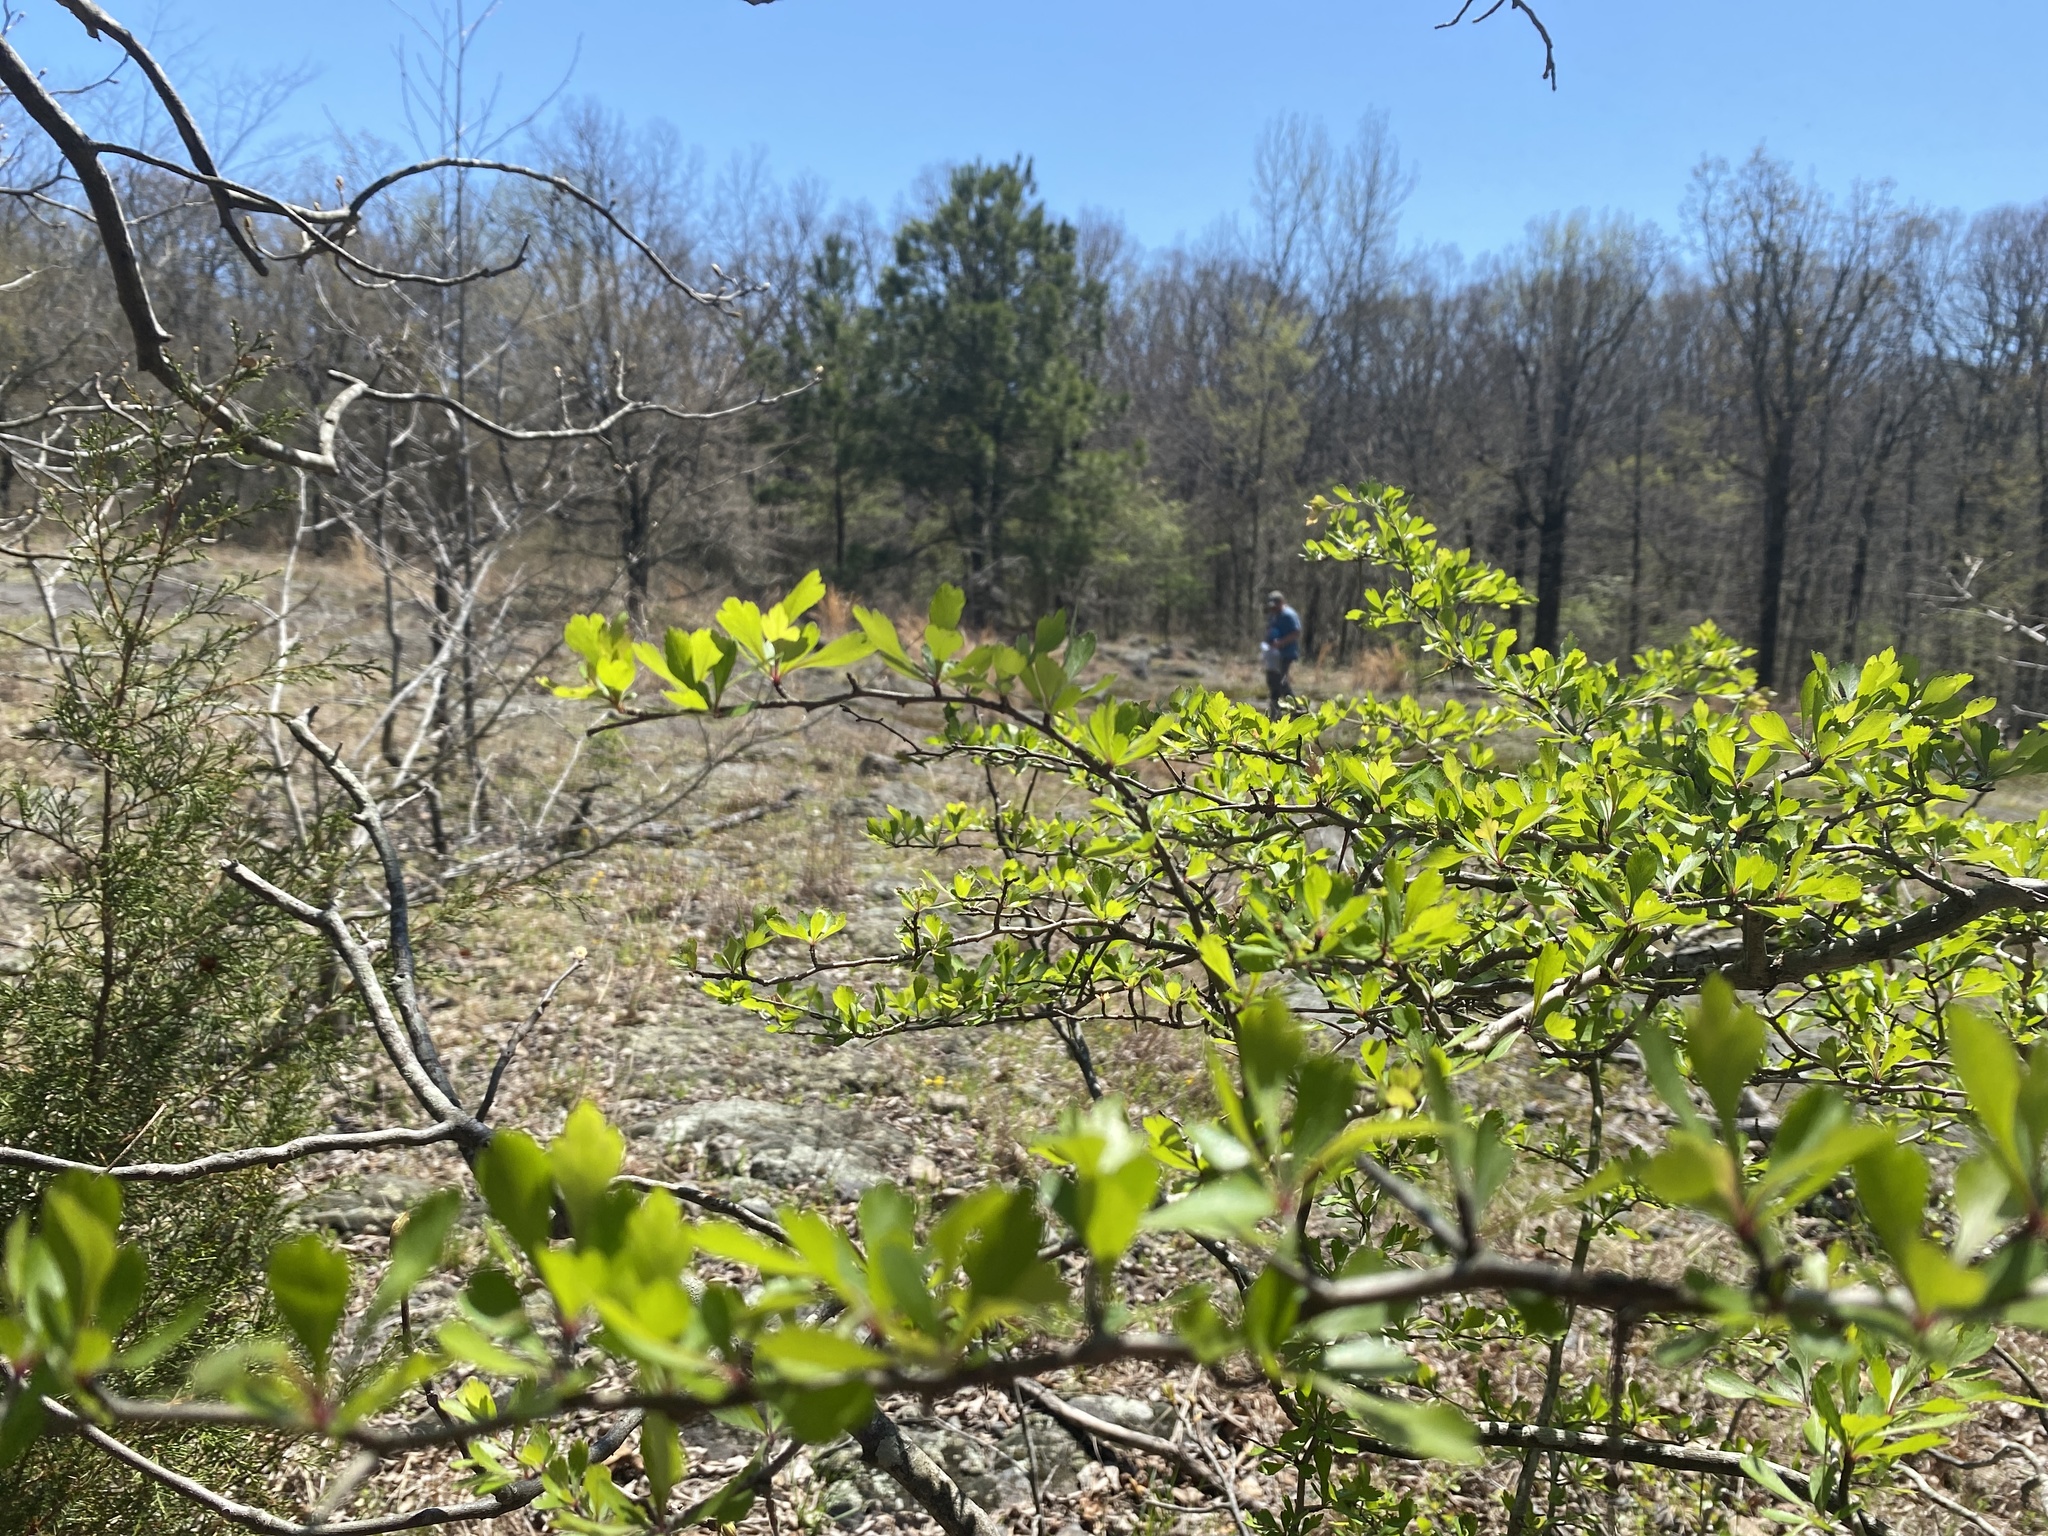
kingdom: Plantae
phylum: Tracheophyta
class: Magnoliopsida
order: Rosales
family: Rosaceae
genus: Crataegus
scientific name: Crataegus spathulata
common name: Littlehip hawthorn
